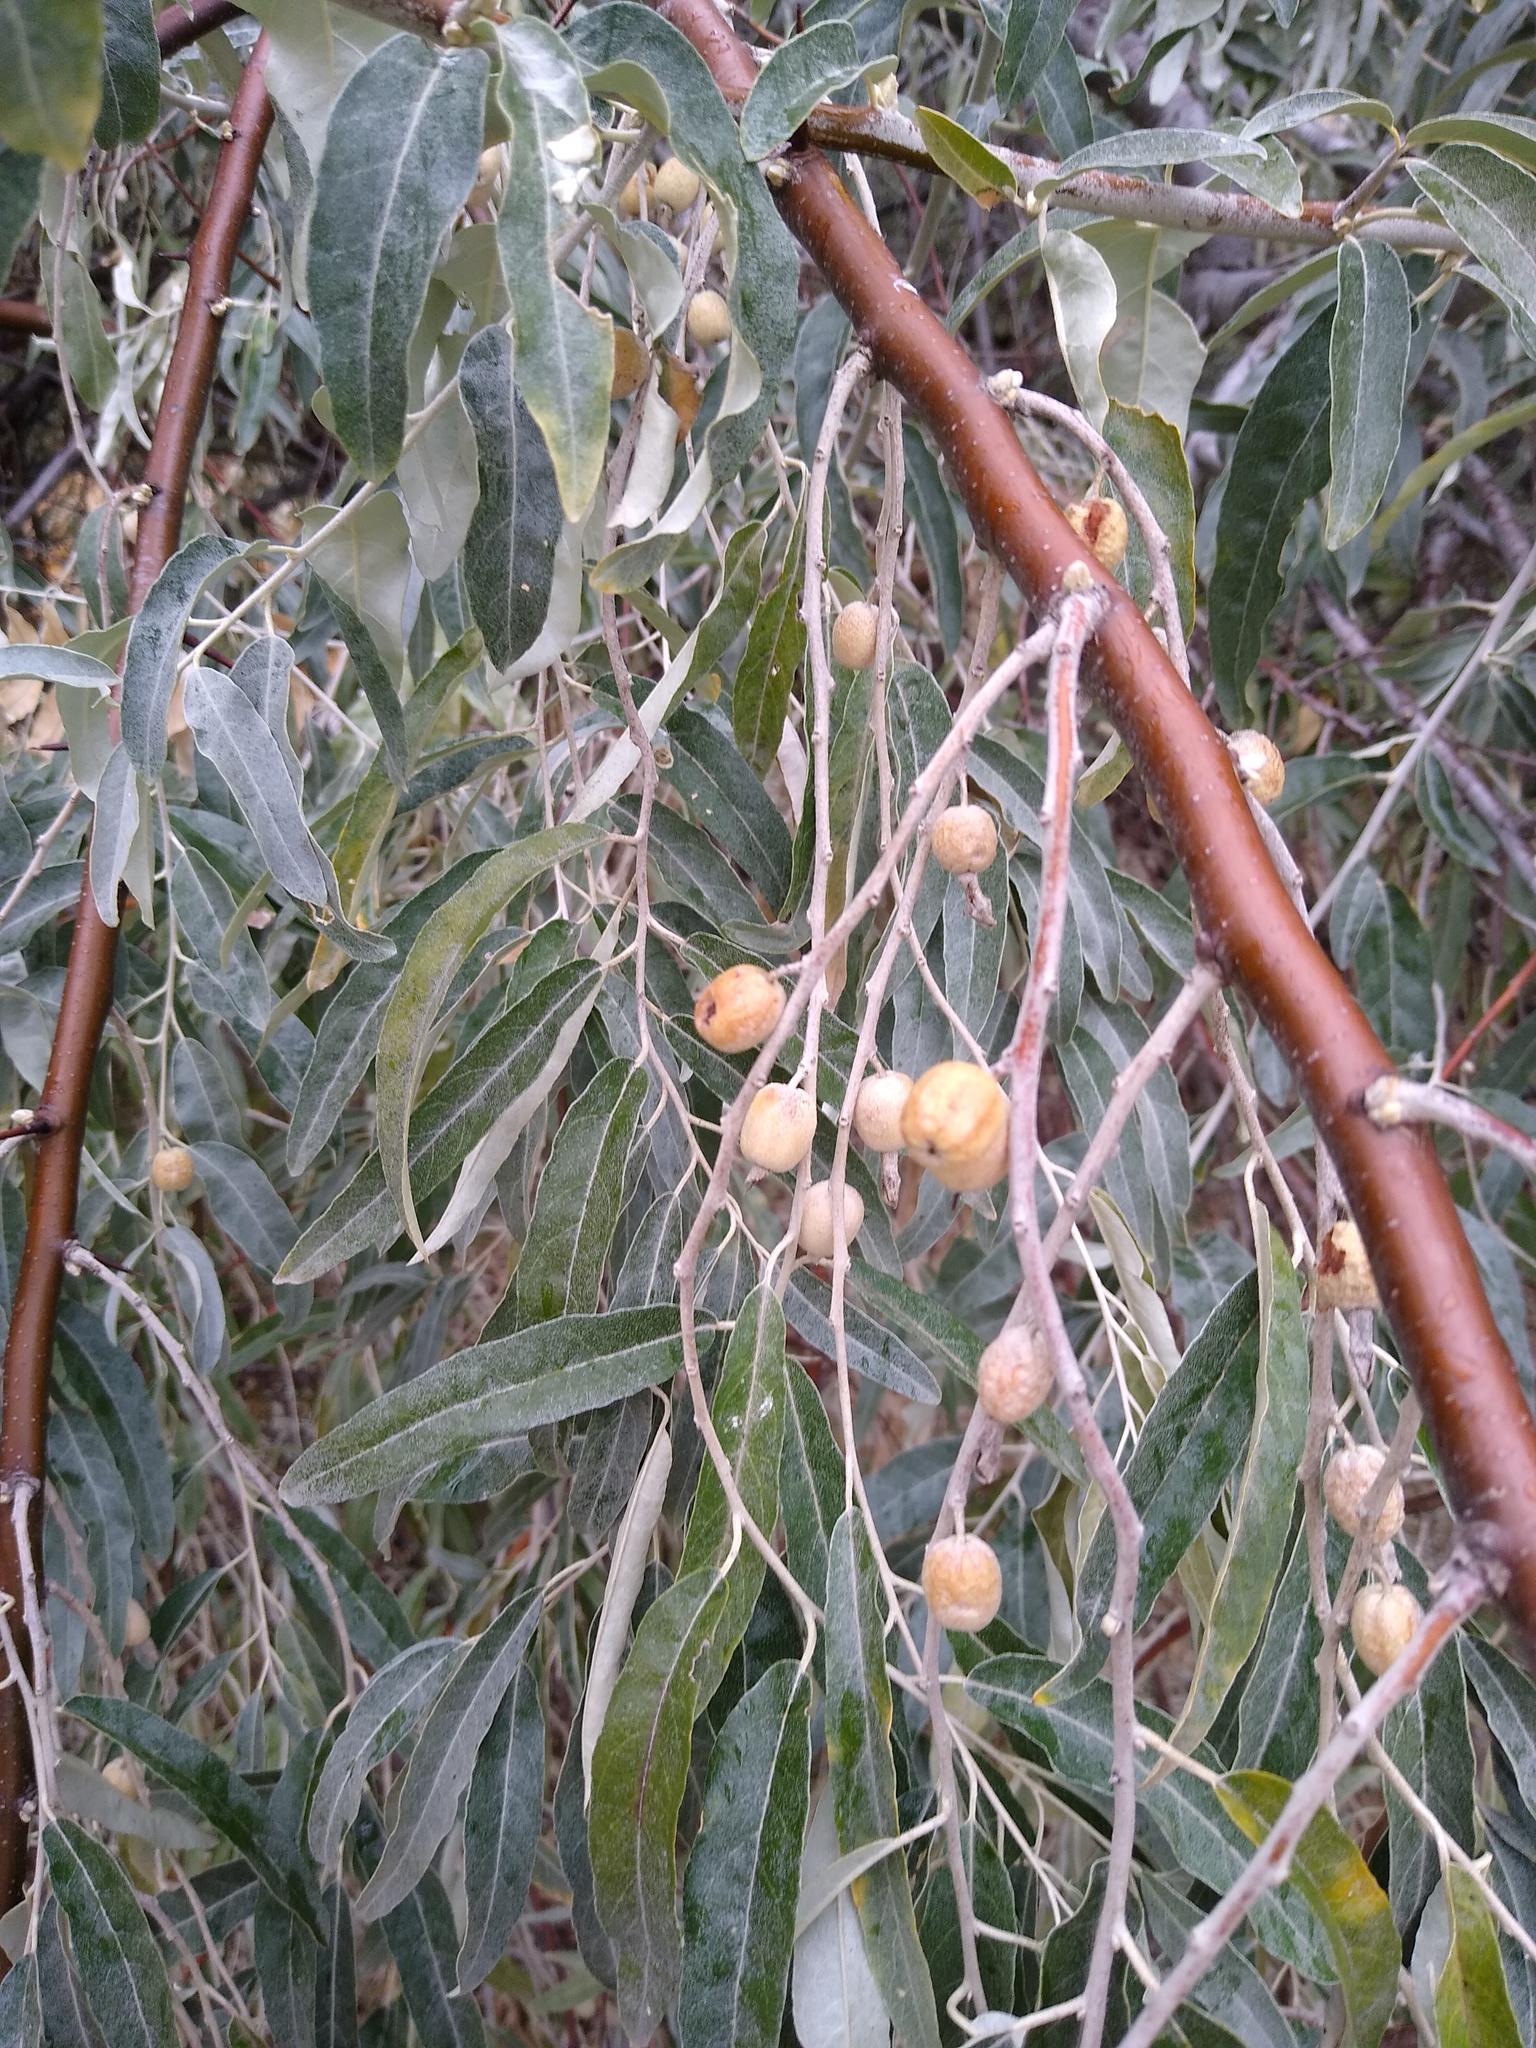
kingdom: Plantae
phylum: Tracheophyta
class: Magnoliopsida
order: Rosales
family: Elaeagnaceae
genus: Elaeagnus
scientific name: Elaeagnus angustifolia
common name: Russian olive
